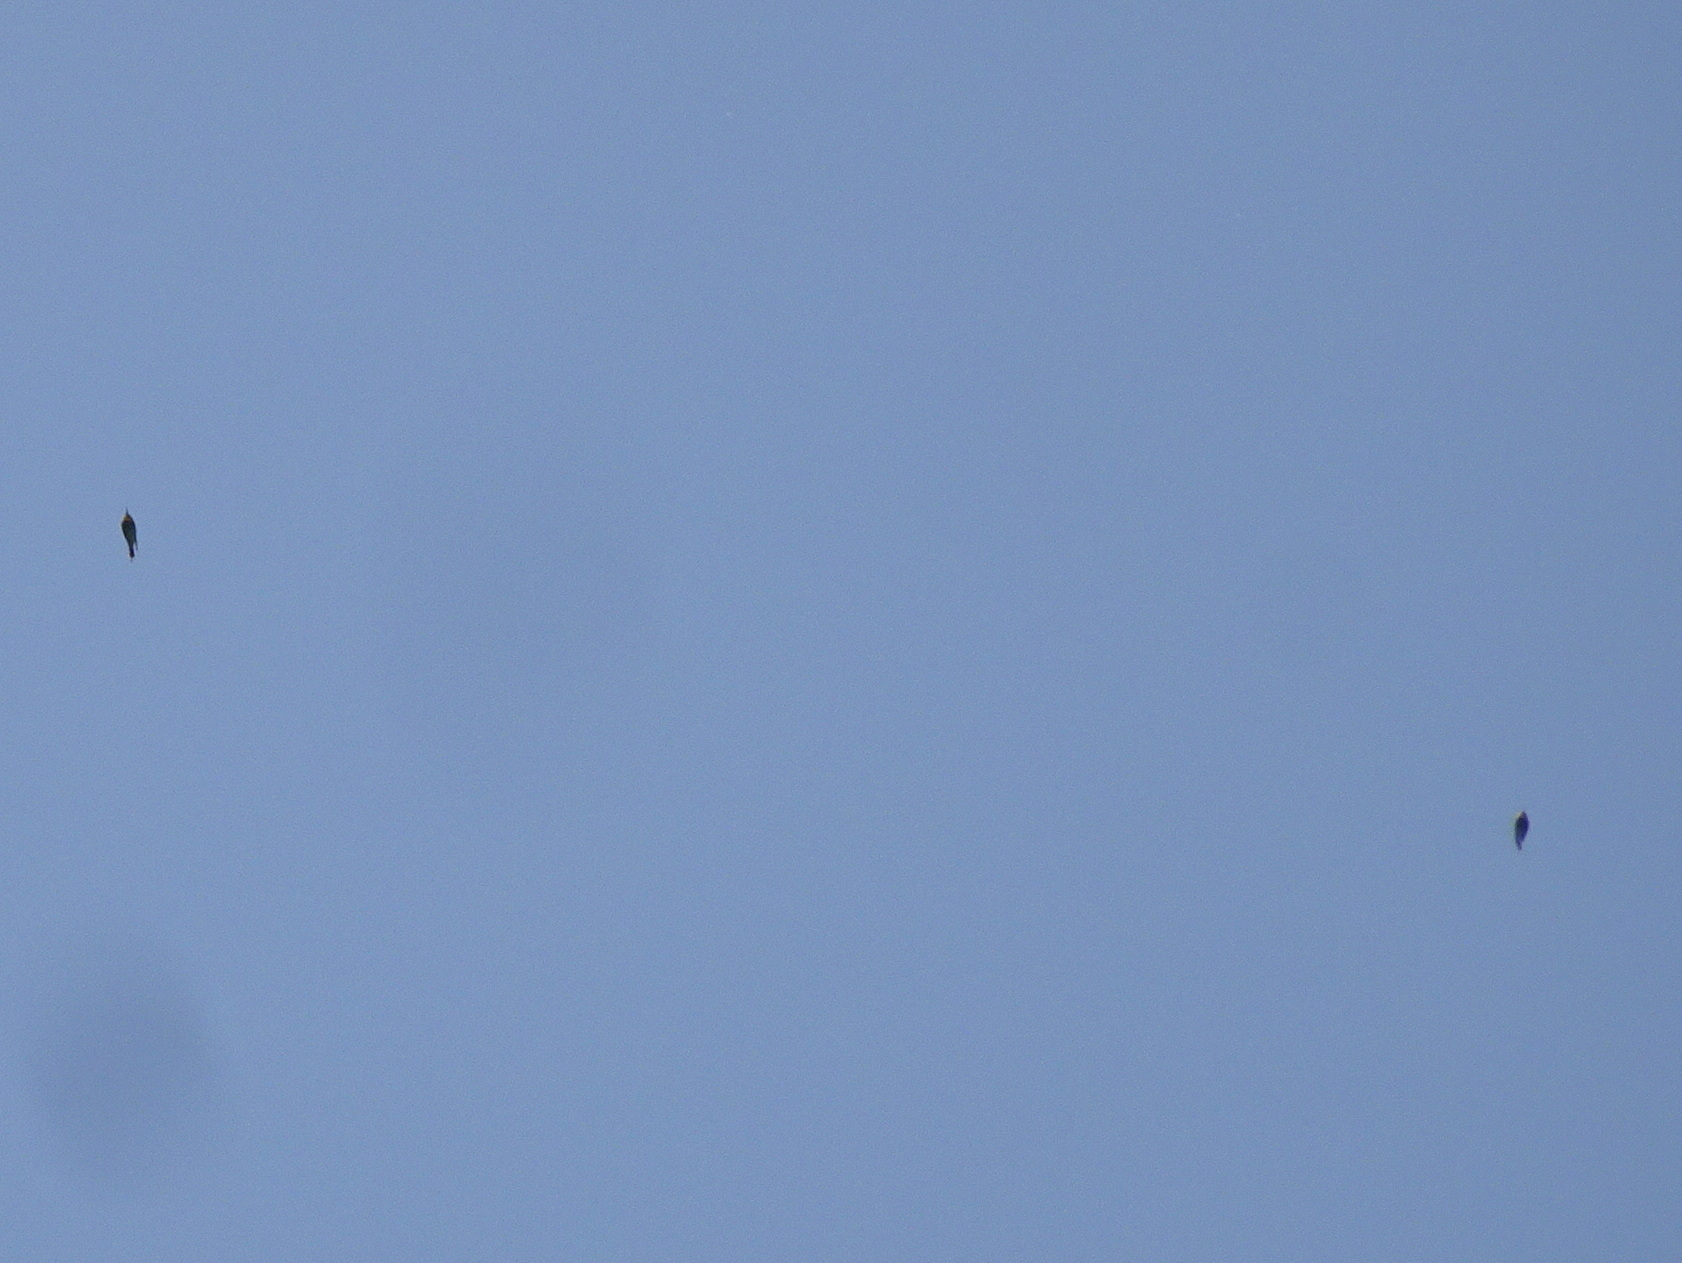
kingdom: Animalia
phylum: Chordata
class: Aves
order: Coraciiformes
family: Meropidae
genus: Merops
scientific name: Merops apiaster
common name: European bee-eater
